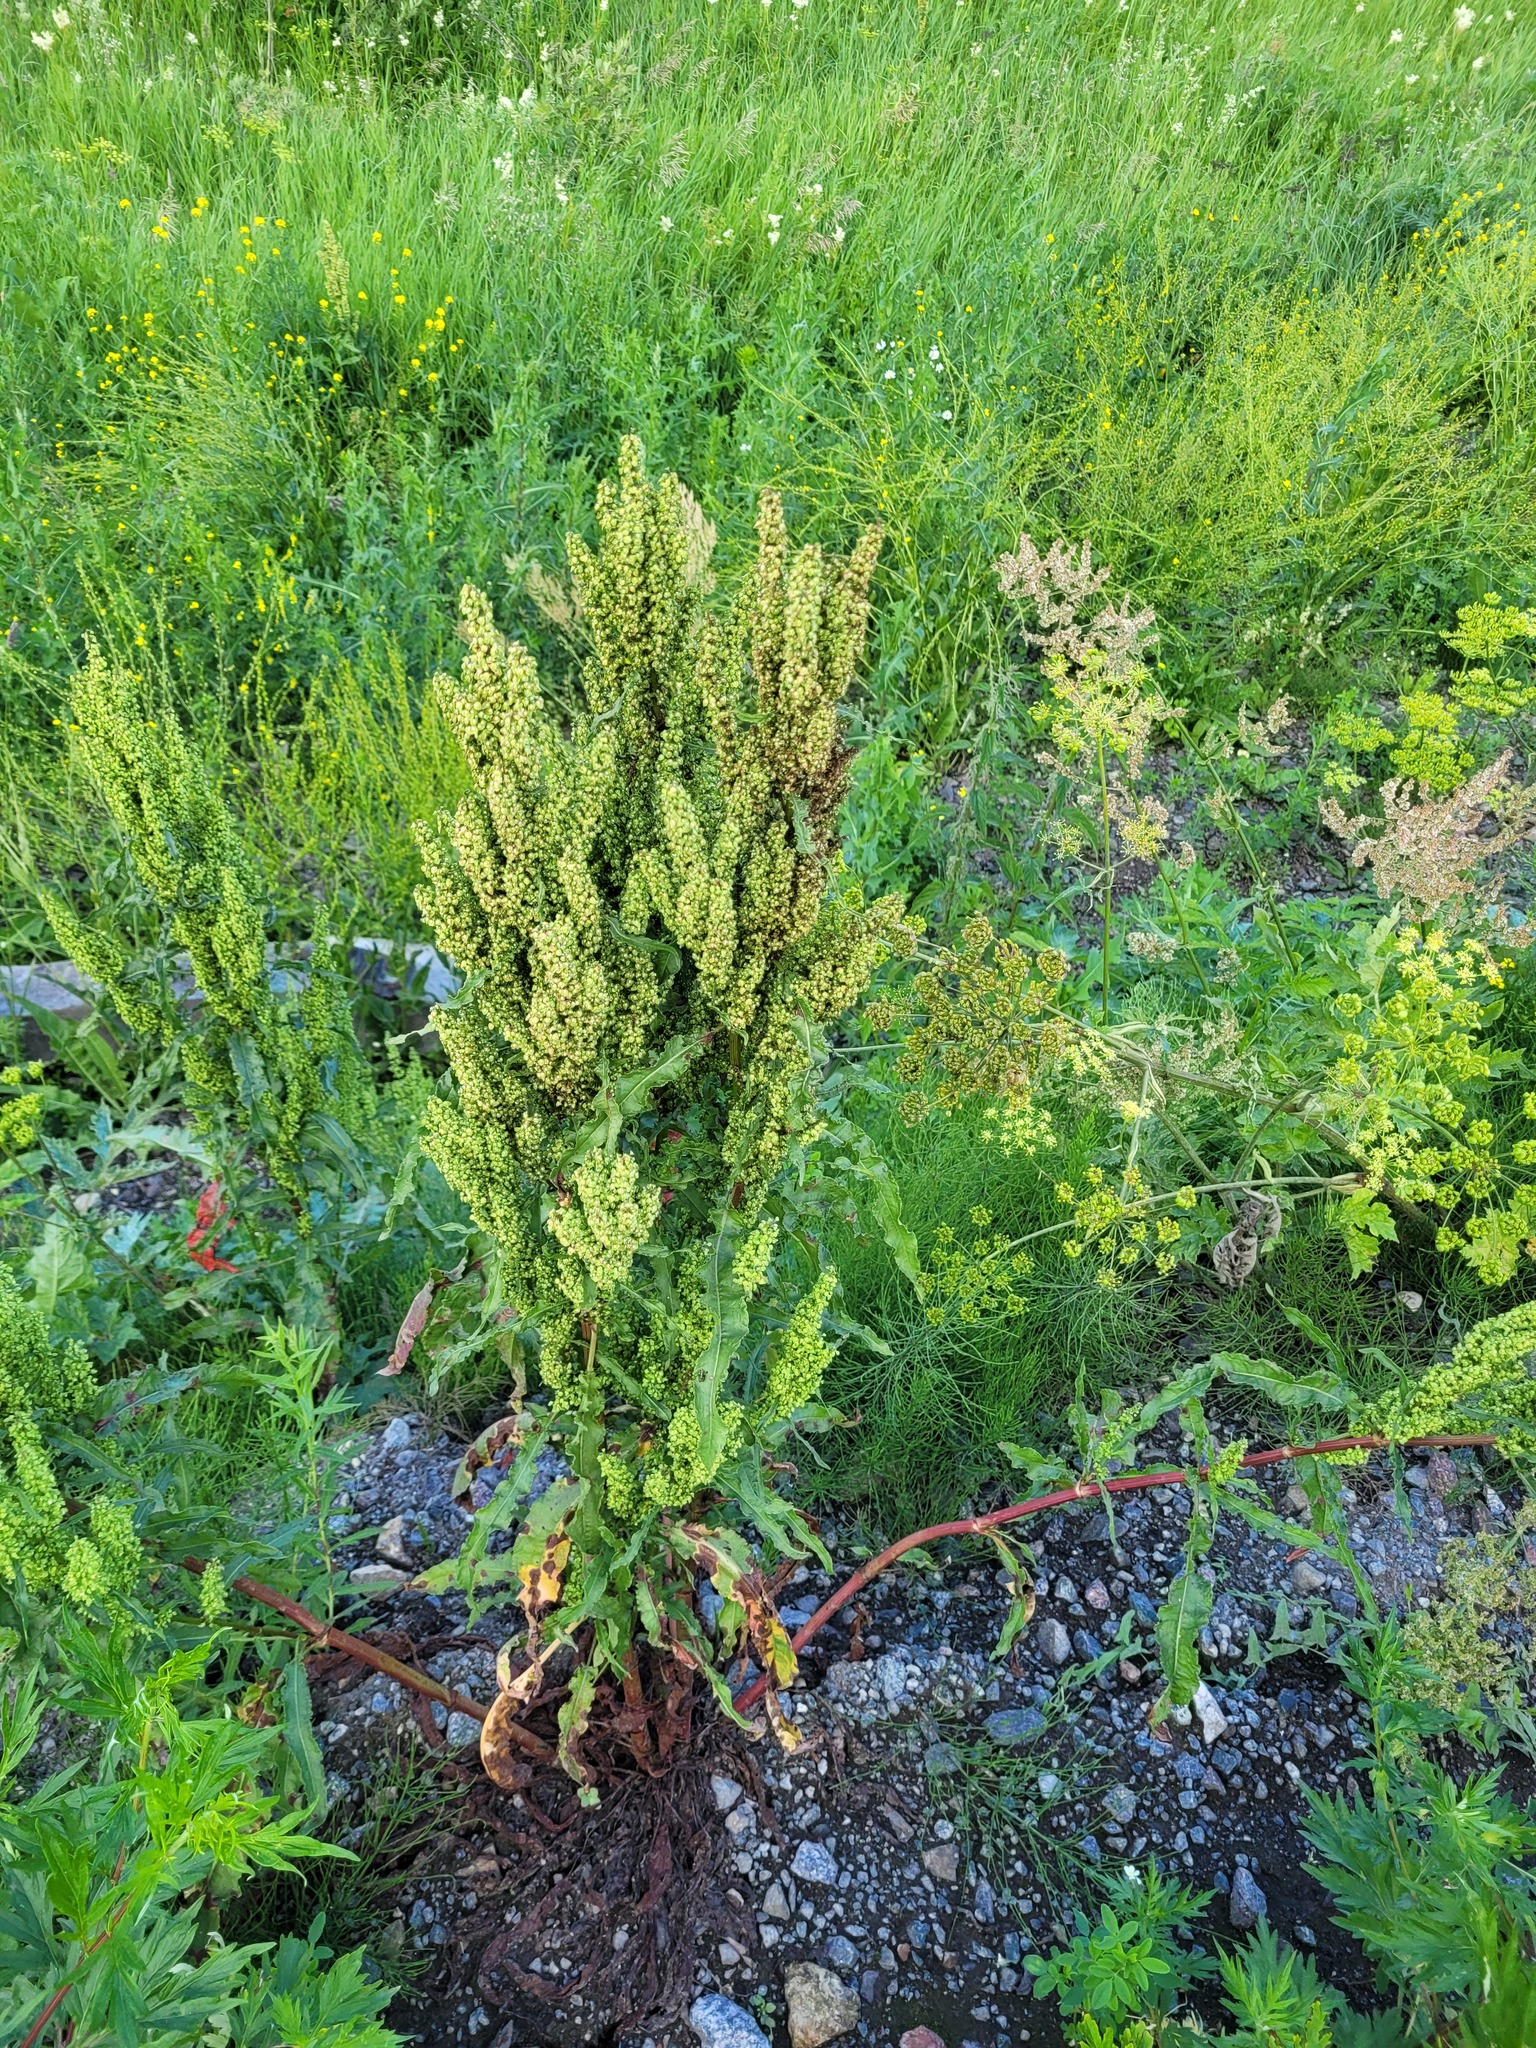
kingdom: Plantae
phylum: Tracheophyta
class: Magnoliopsida
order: Caryophyllales
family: Polygonaceae
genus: Rumex
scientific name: Rumex crispus
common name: Curled dock
